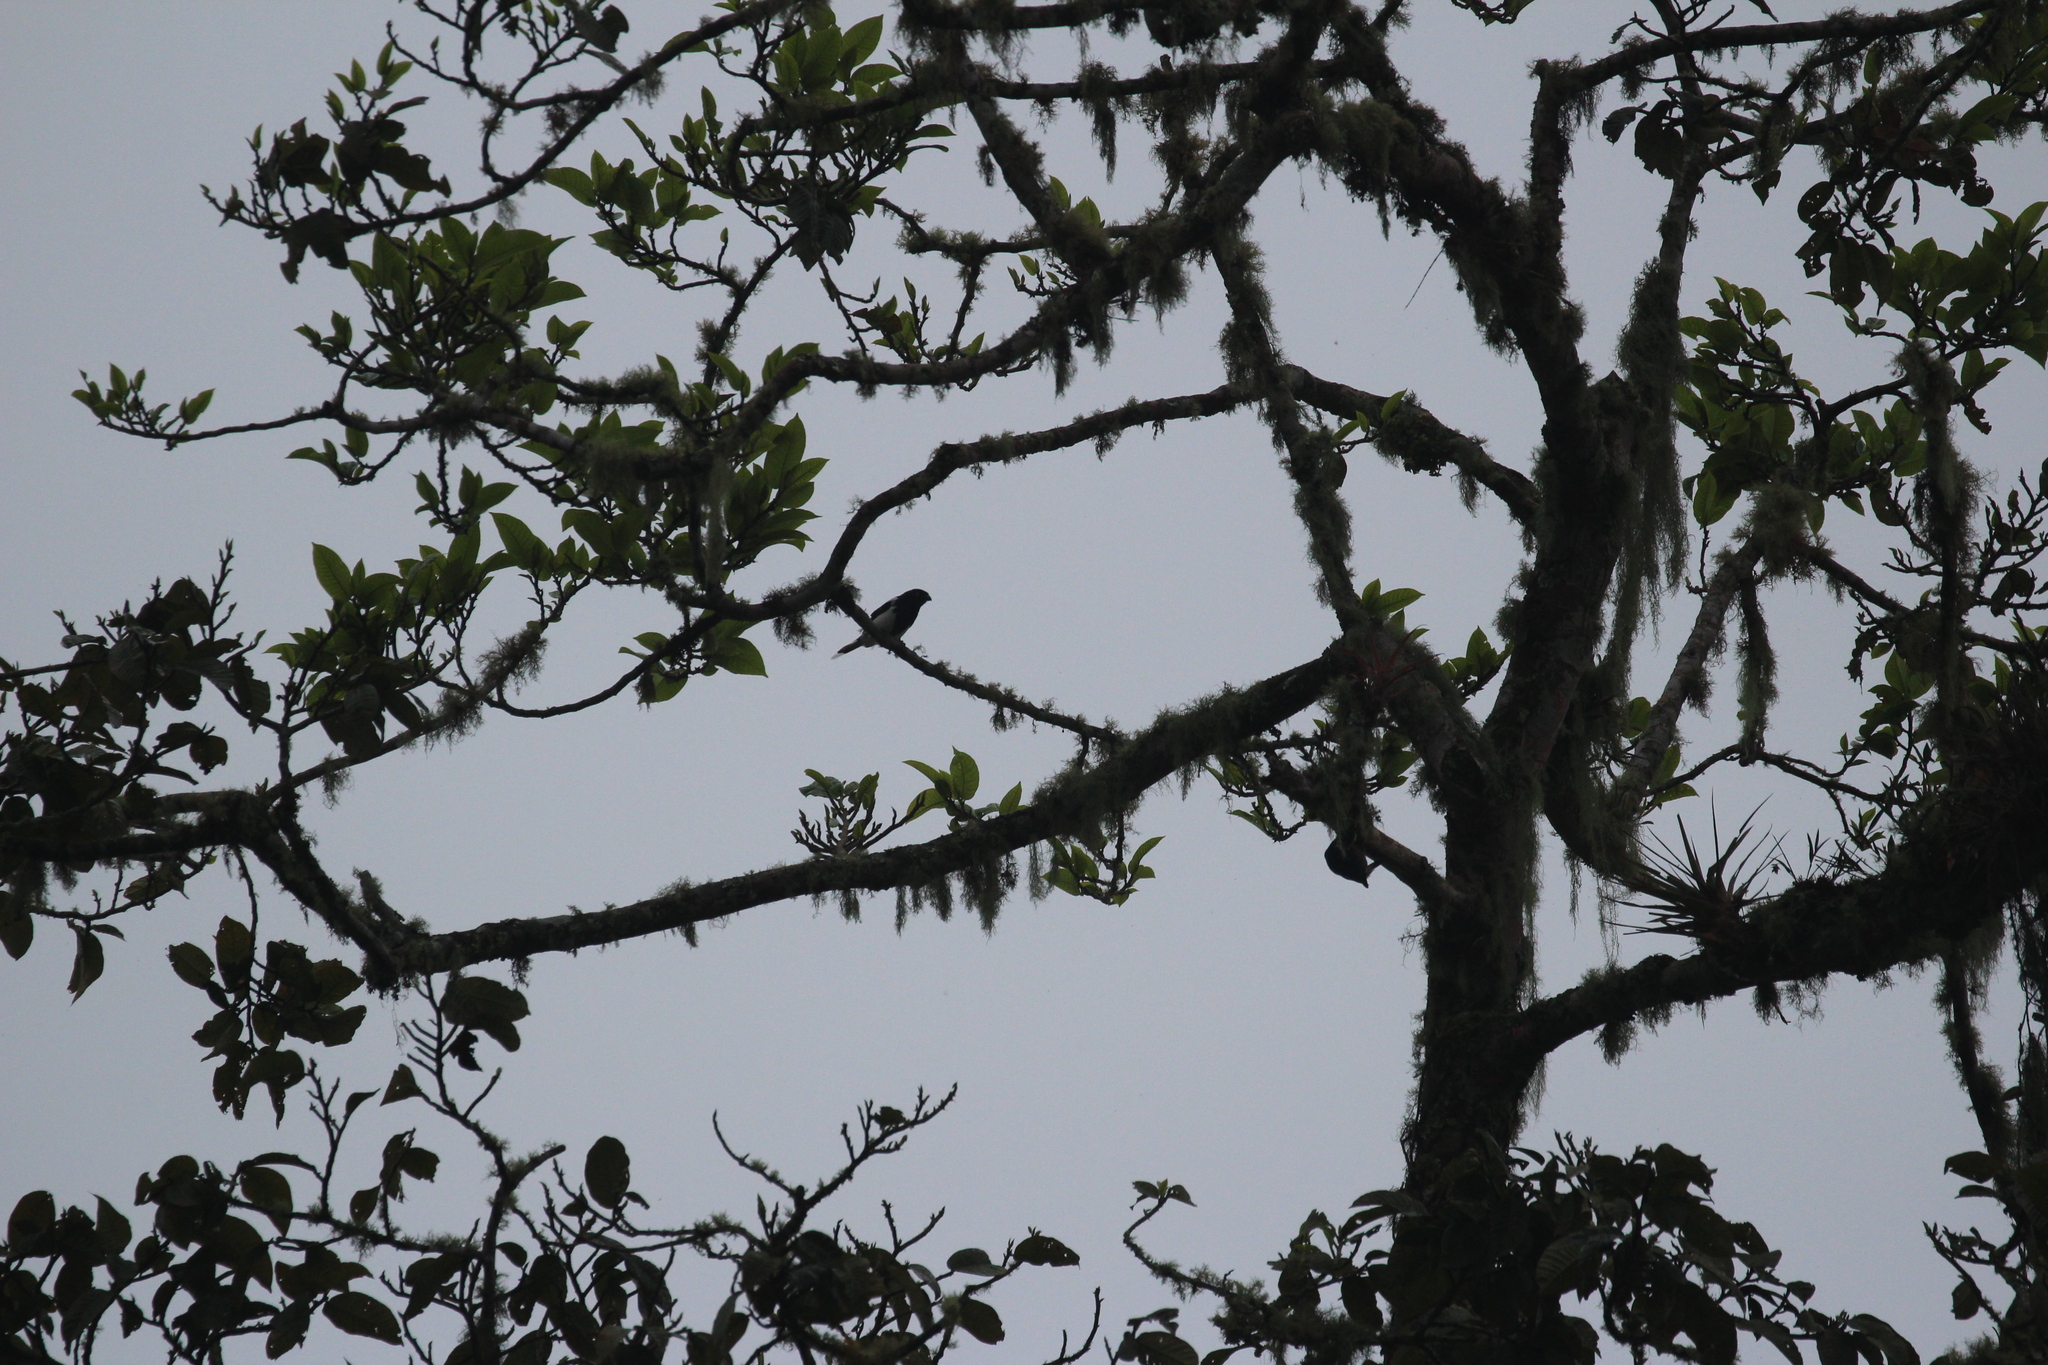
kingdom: Animalia
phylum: Chordata
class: Aves
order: Passeriformes
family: Thraupidae
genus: Cissopis
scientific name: Cissopis leverianus
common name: Magpie tanager
